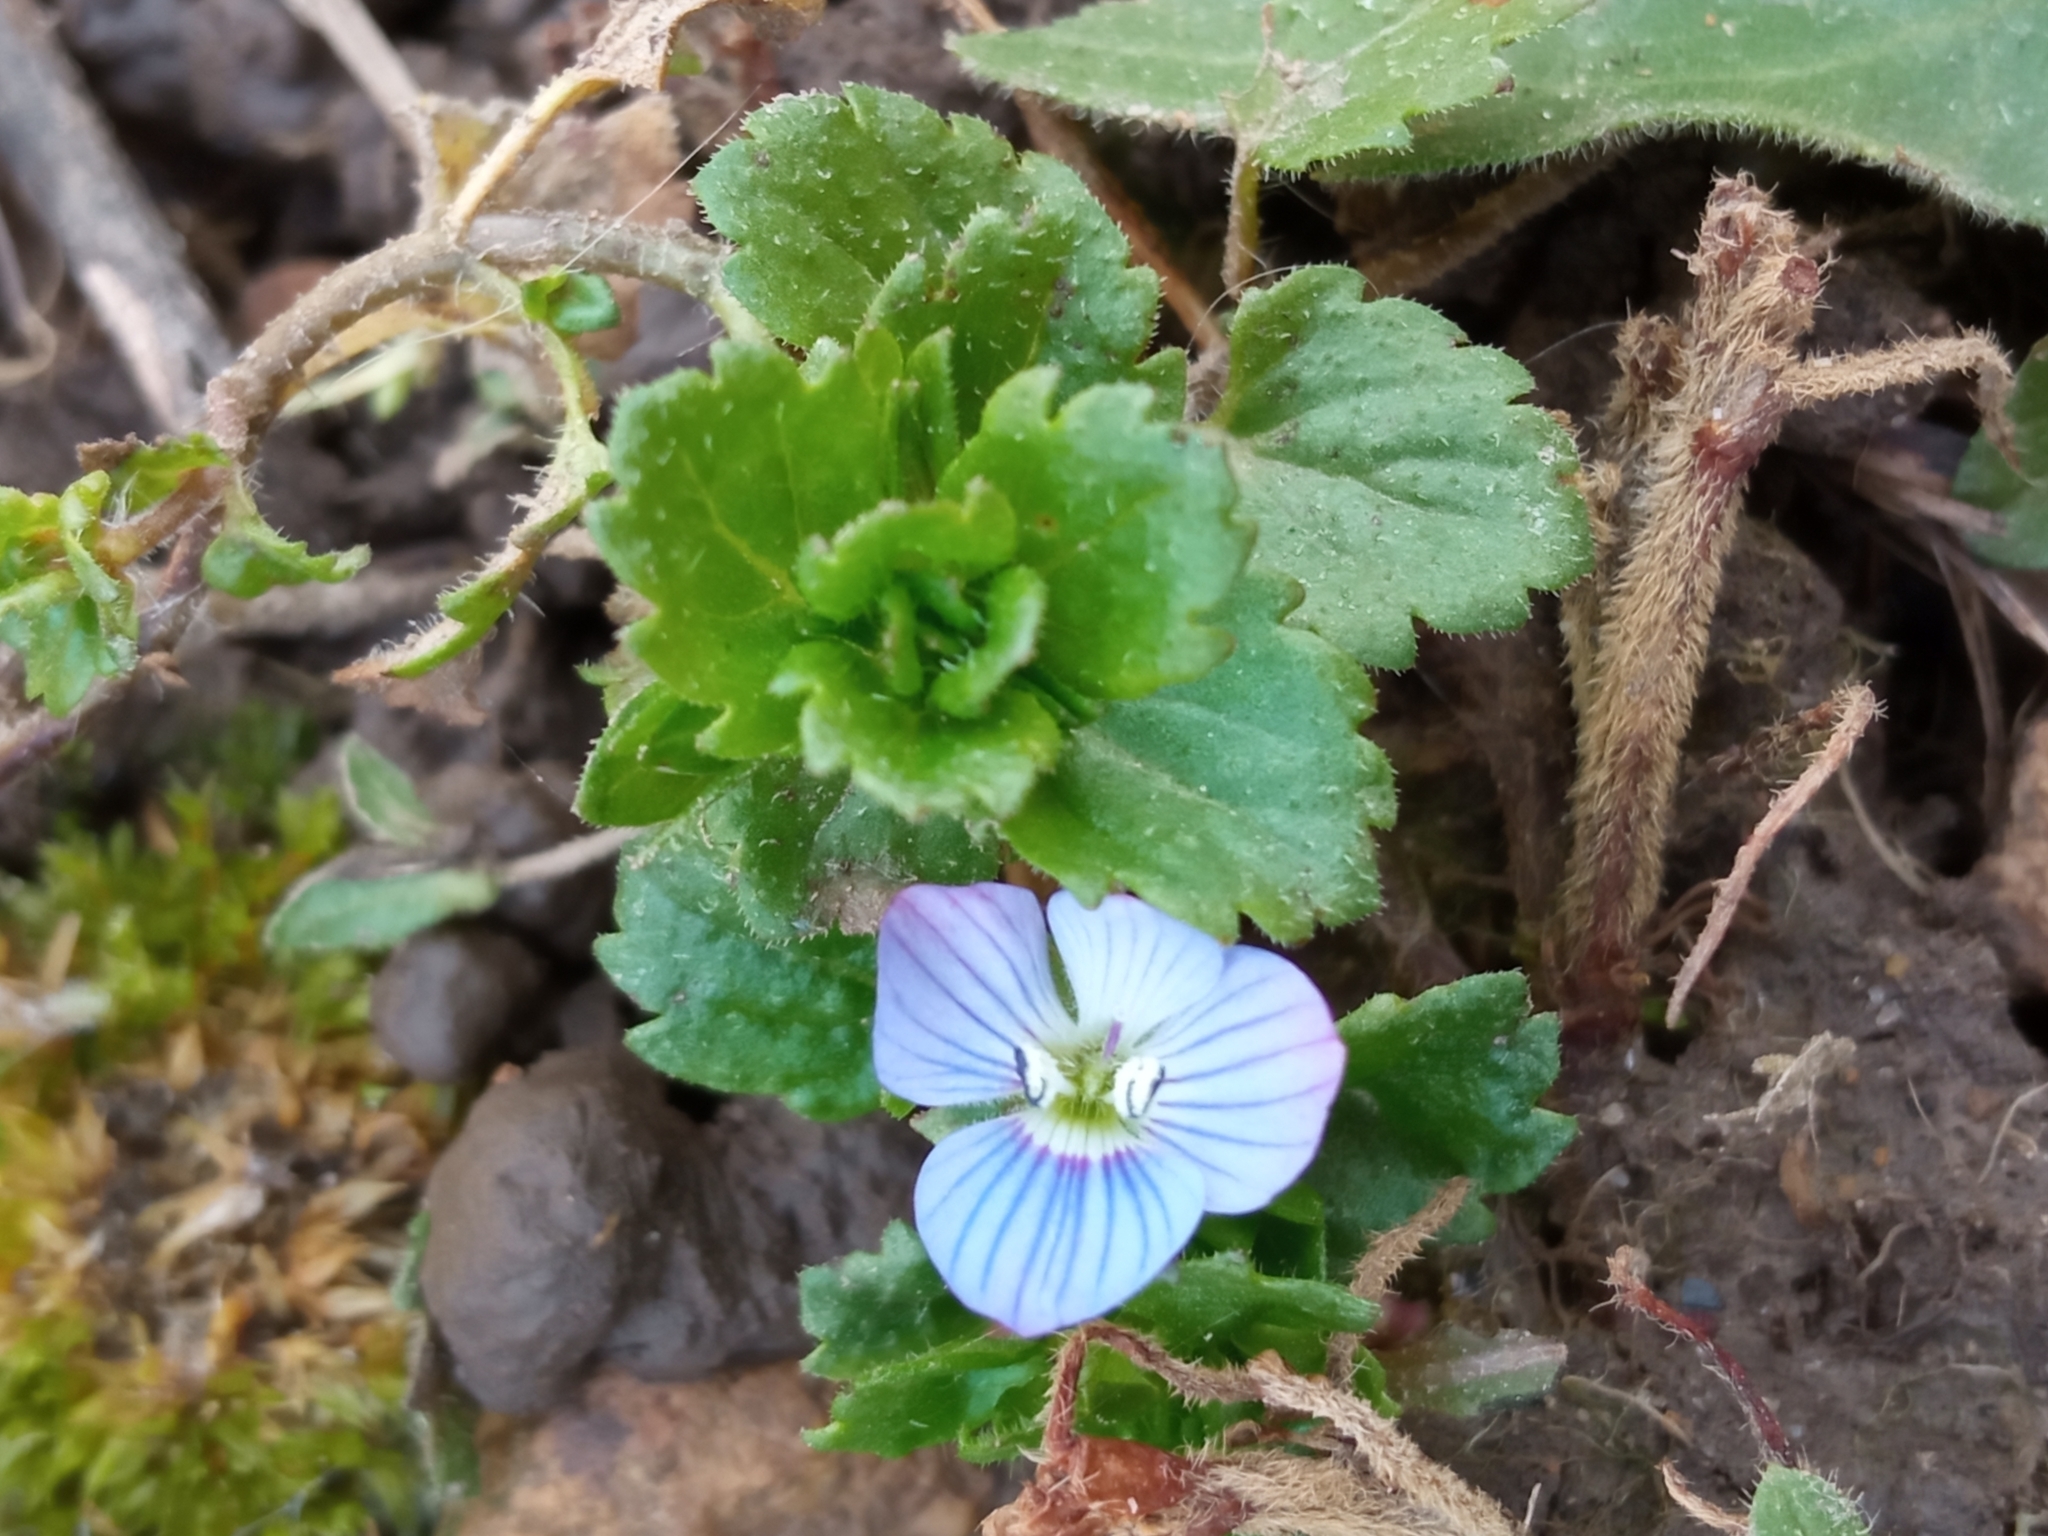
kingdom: Plantae
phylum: Tracheophyta
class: Magnoliopsida
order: Lamiales
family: Plantaginaceae
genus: Veronica
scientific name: Veronica persica
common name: Common field-speedwell
